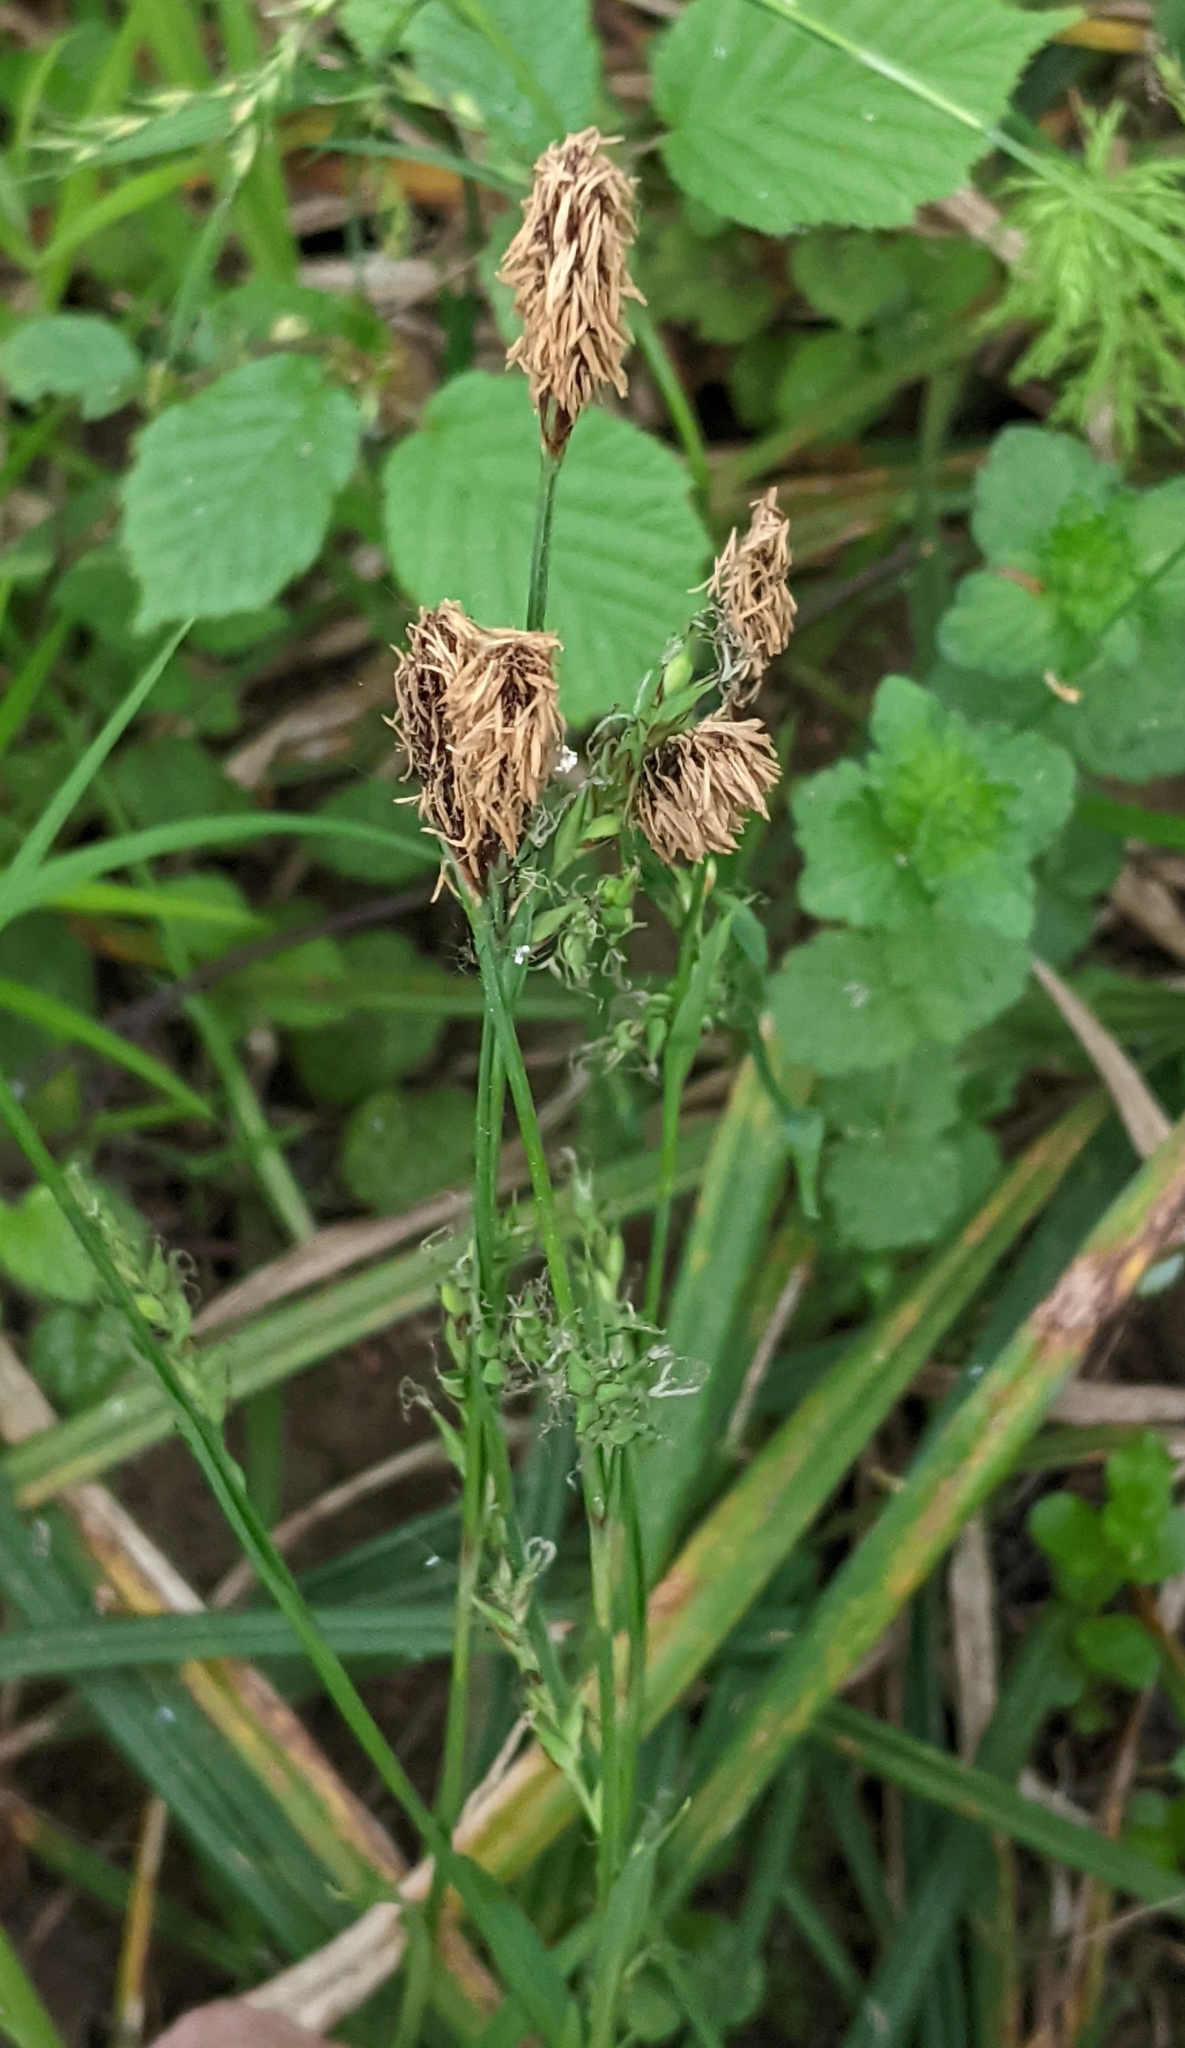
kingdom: Plantae
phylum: Tracheophyta
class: Liliopsida
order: Poales
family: Cyperaceae
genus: Carex
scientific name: Carex pilosa
